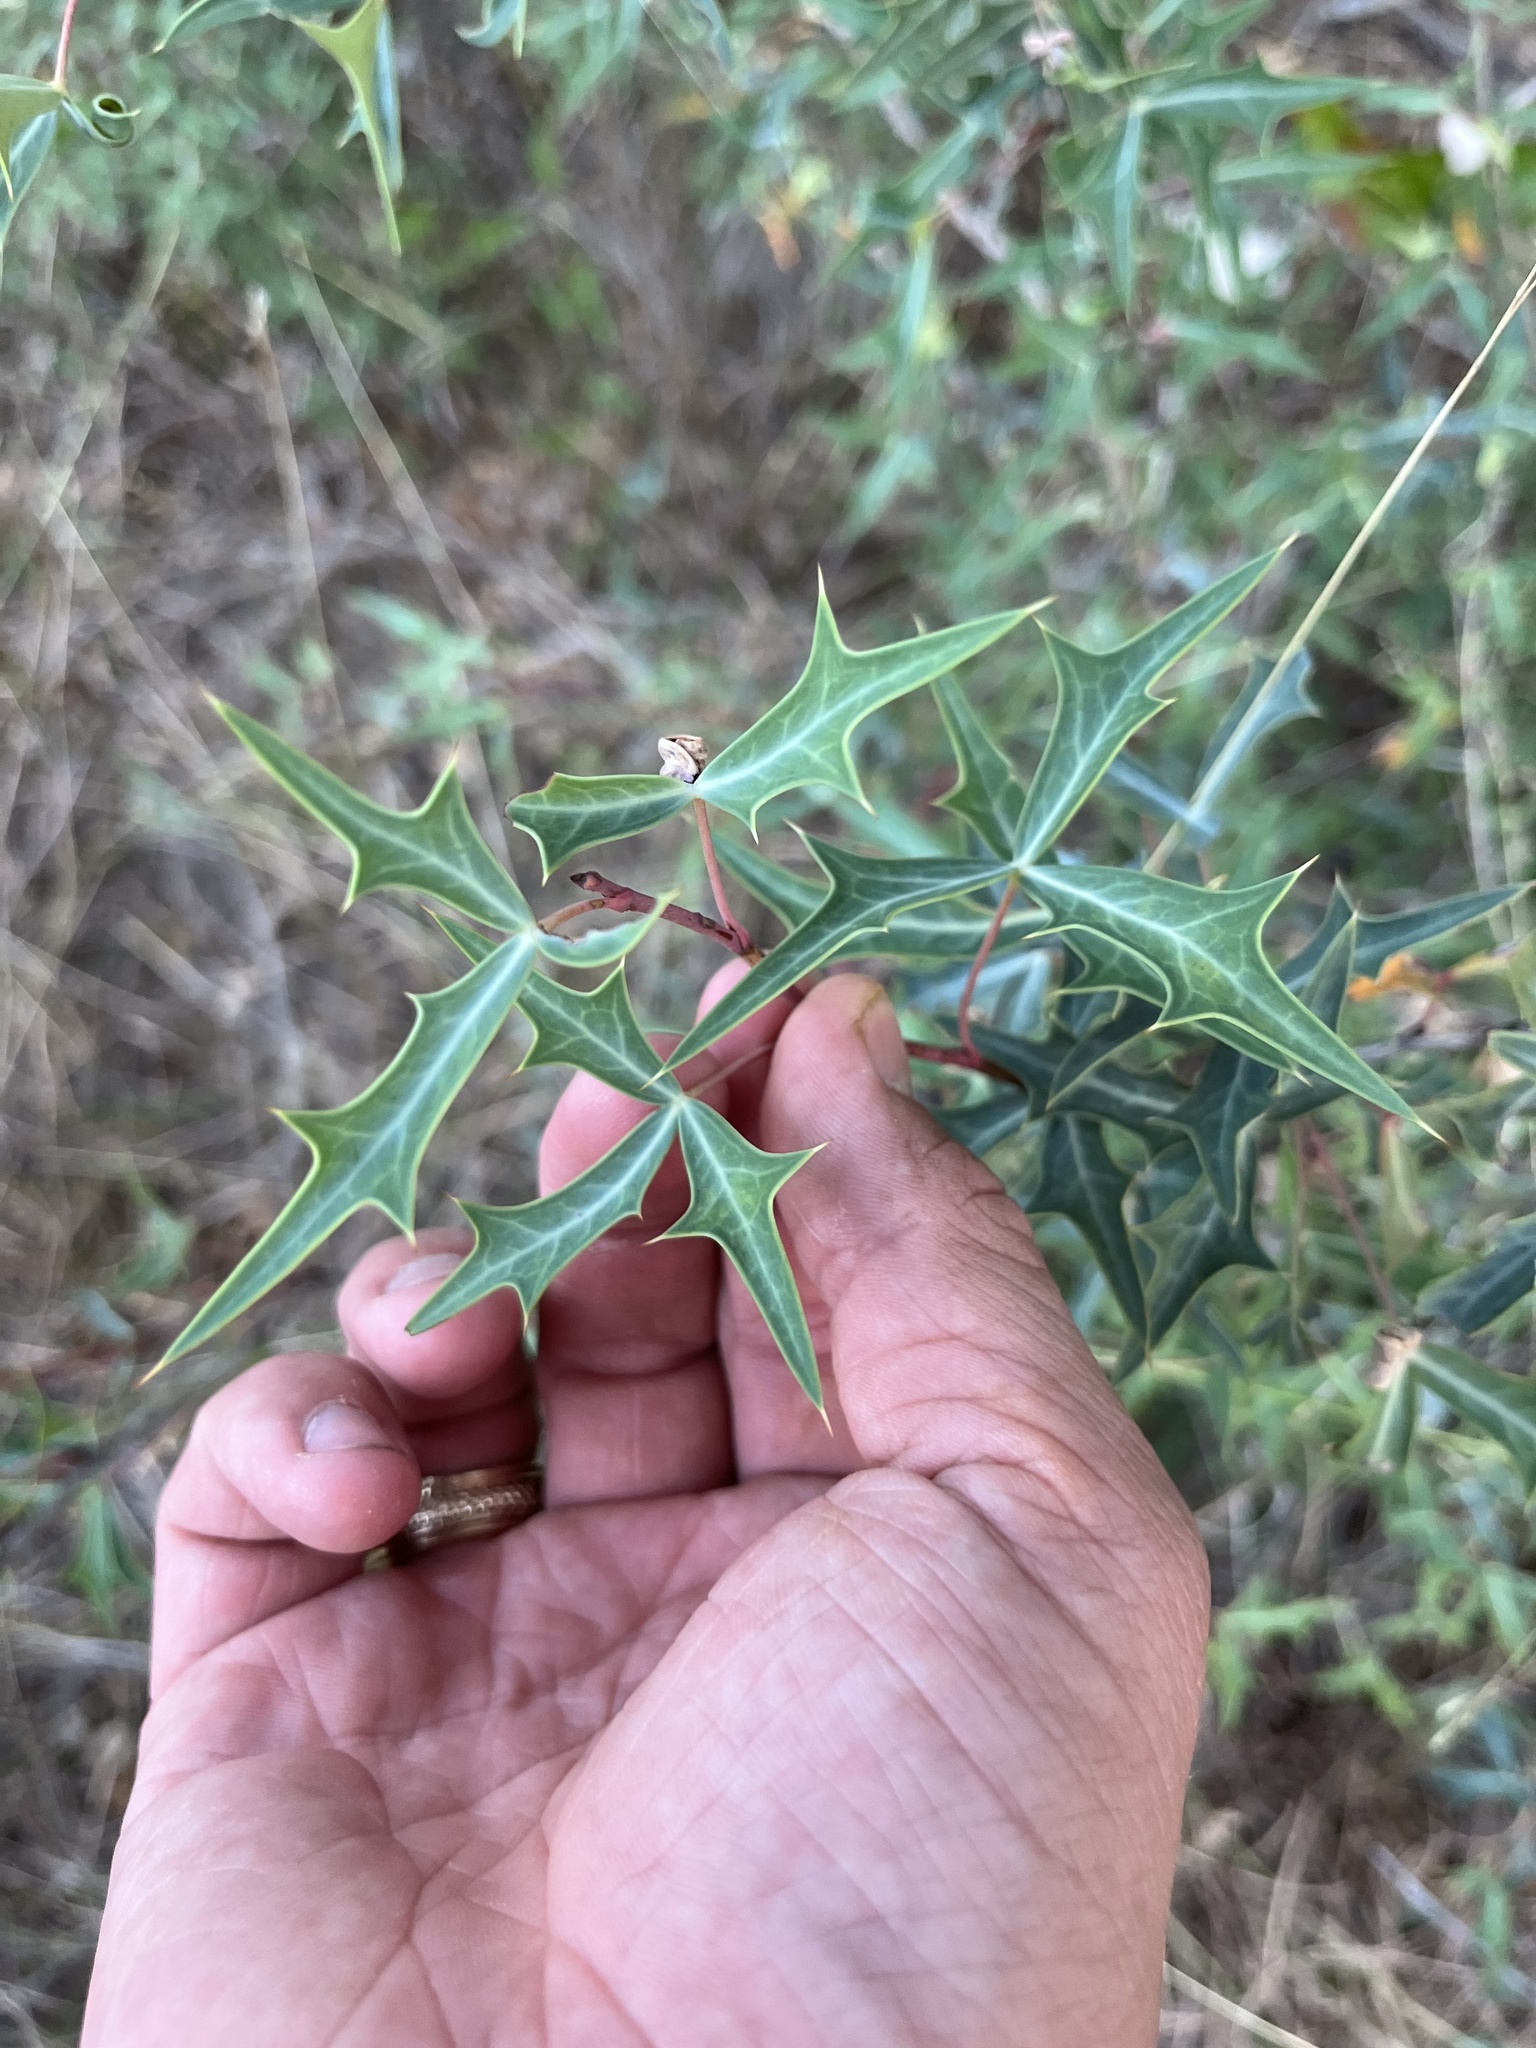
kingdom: Plantae
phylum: Tracheophyta
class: Magnoliopsida
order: Ranunculales
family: Berberidaceae
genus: Alloberberis
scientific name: Alloberberis trifoliolata
